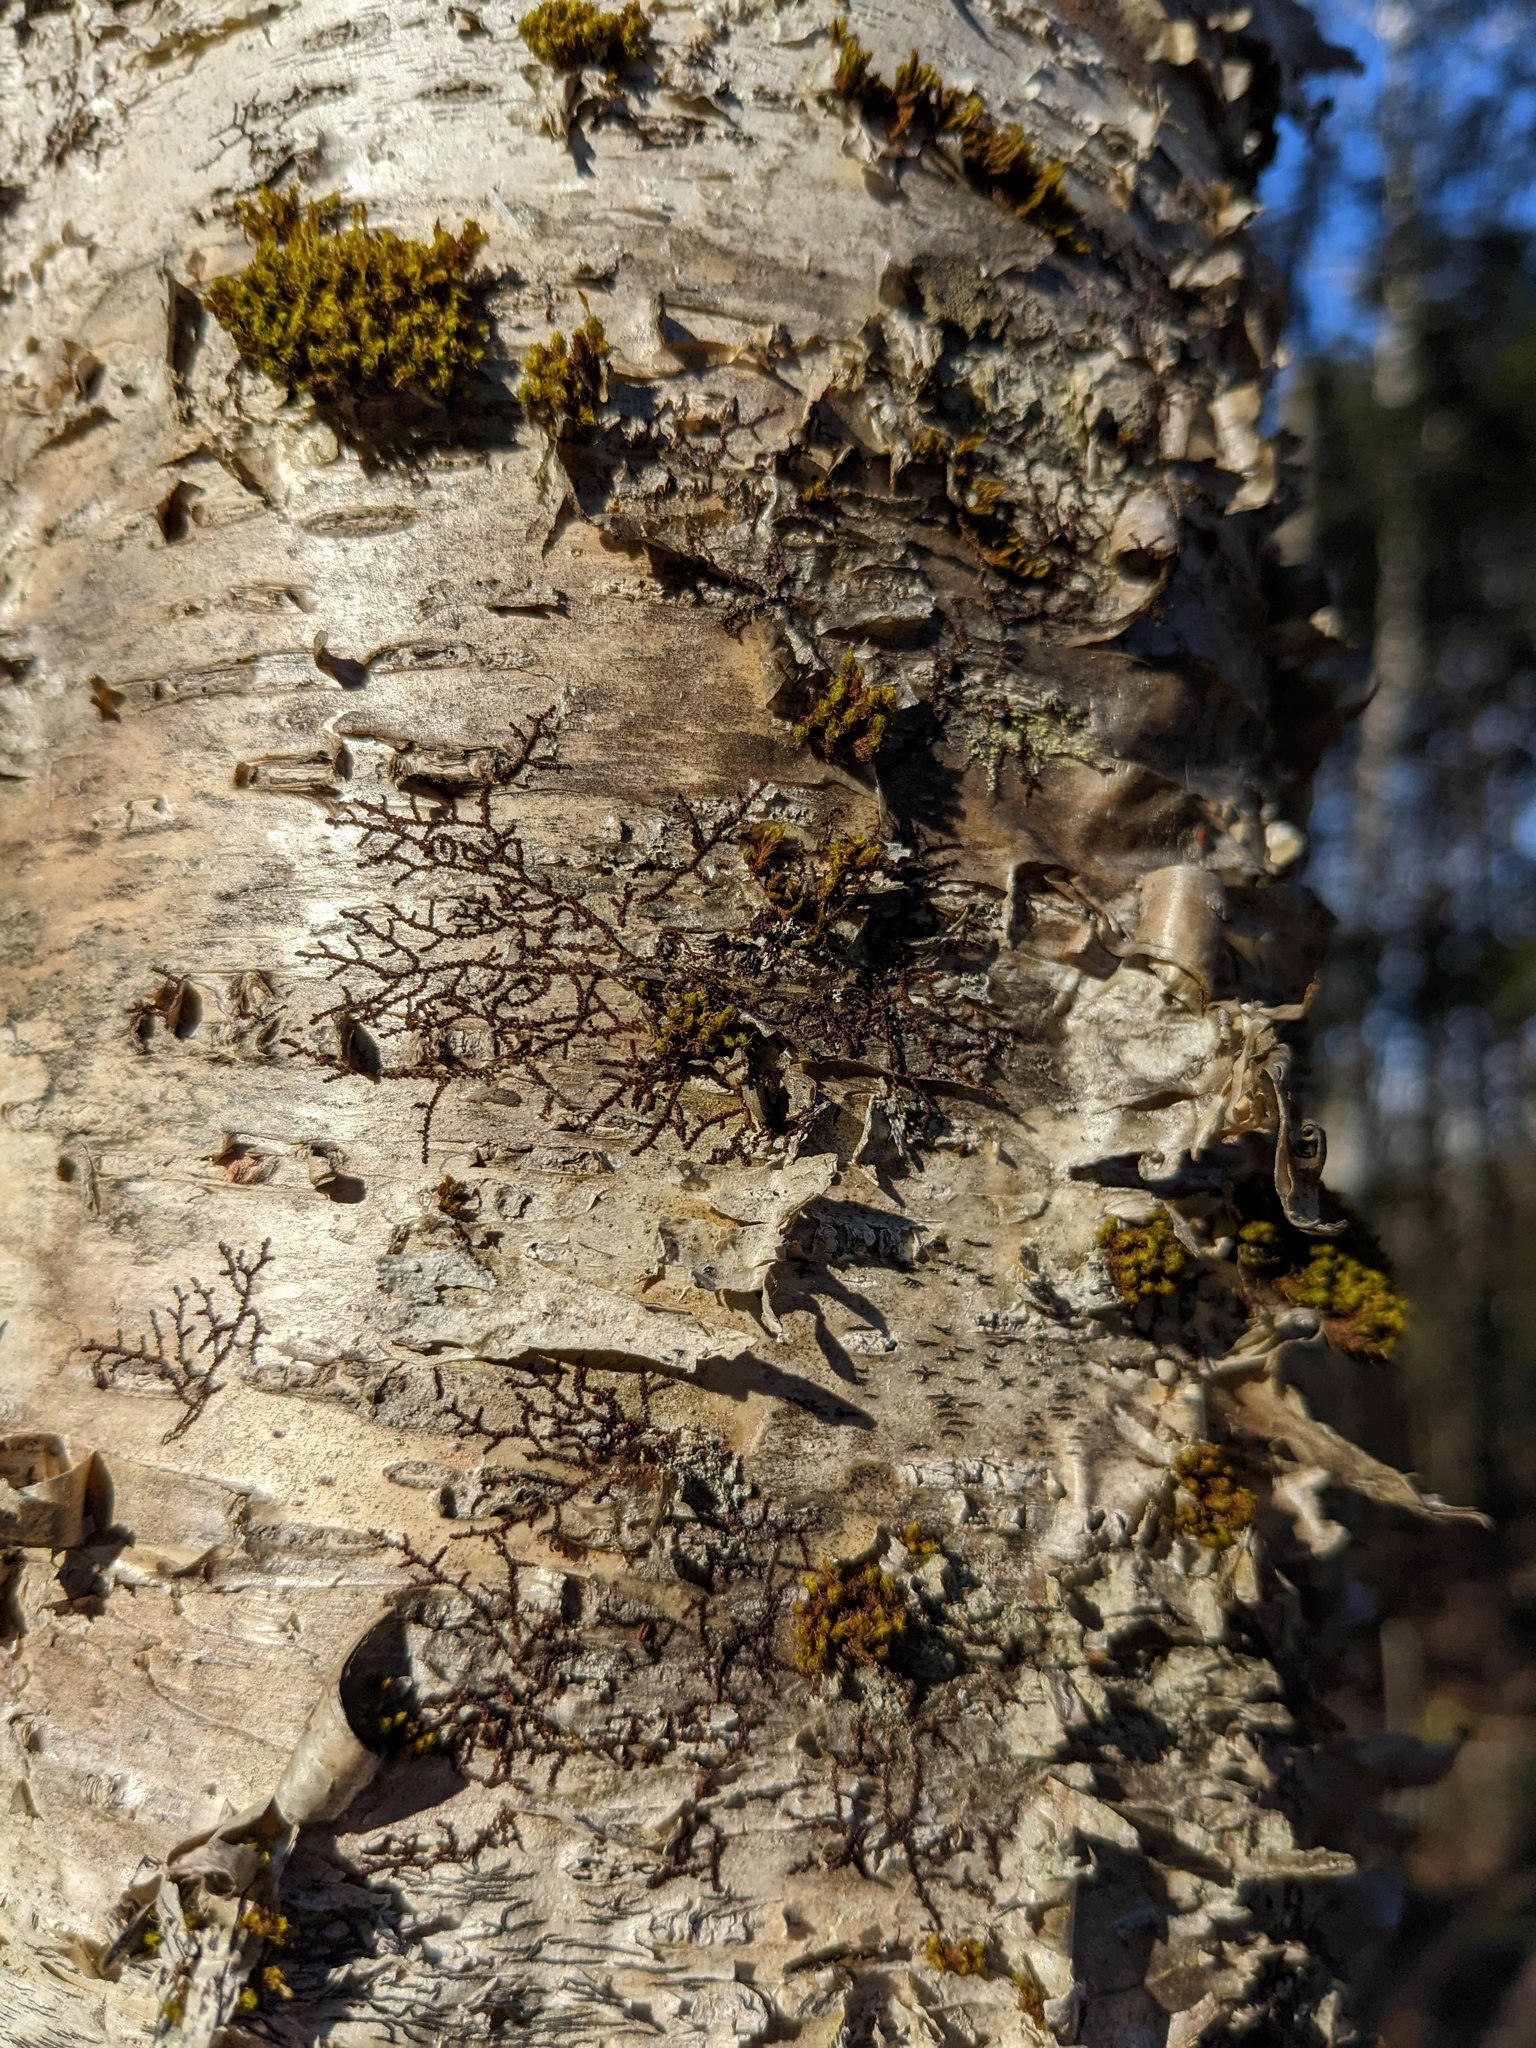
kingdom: Plantae
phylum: Marchantiophyta
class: Jungermanniopsida
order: Porellales
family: Frullaniaceae
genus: Frullania
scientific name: Frullania eboracensis
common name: New york scalewort
